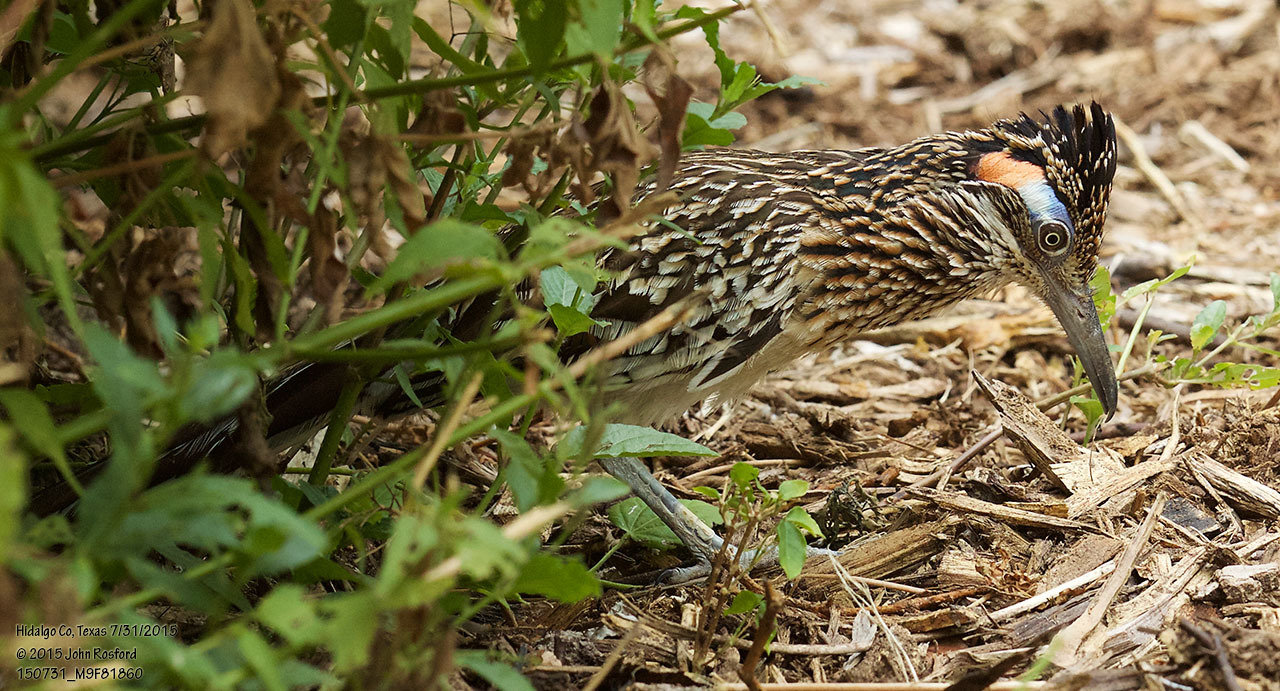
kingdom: Animalia
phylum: Chordata
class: Aves
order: Cuculiformes
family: Cuculidae
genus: Geococcyx
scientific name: Geococcyx californianus
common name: Greater roadrunner
